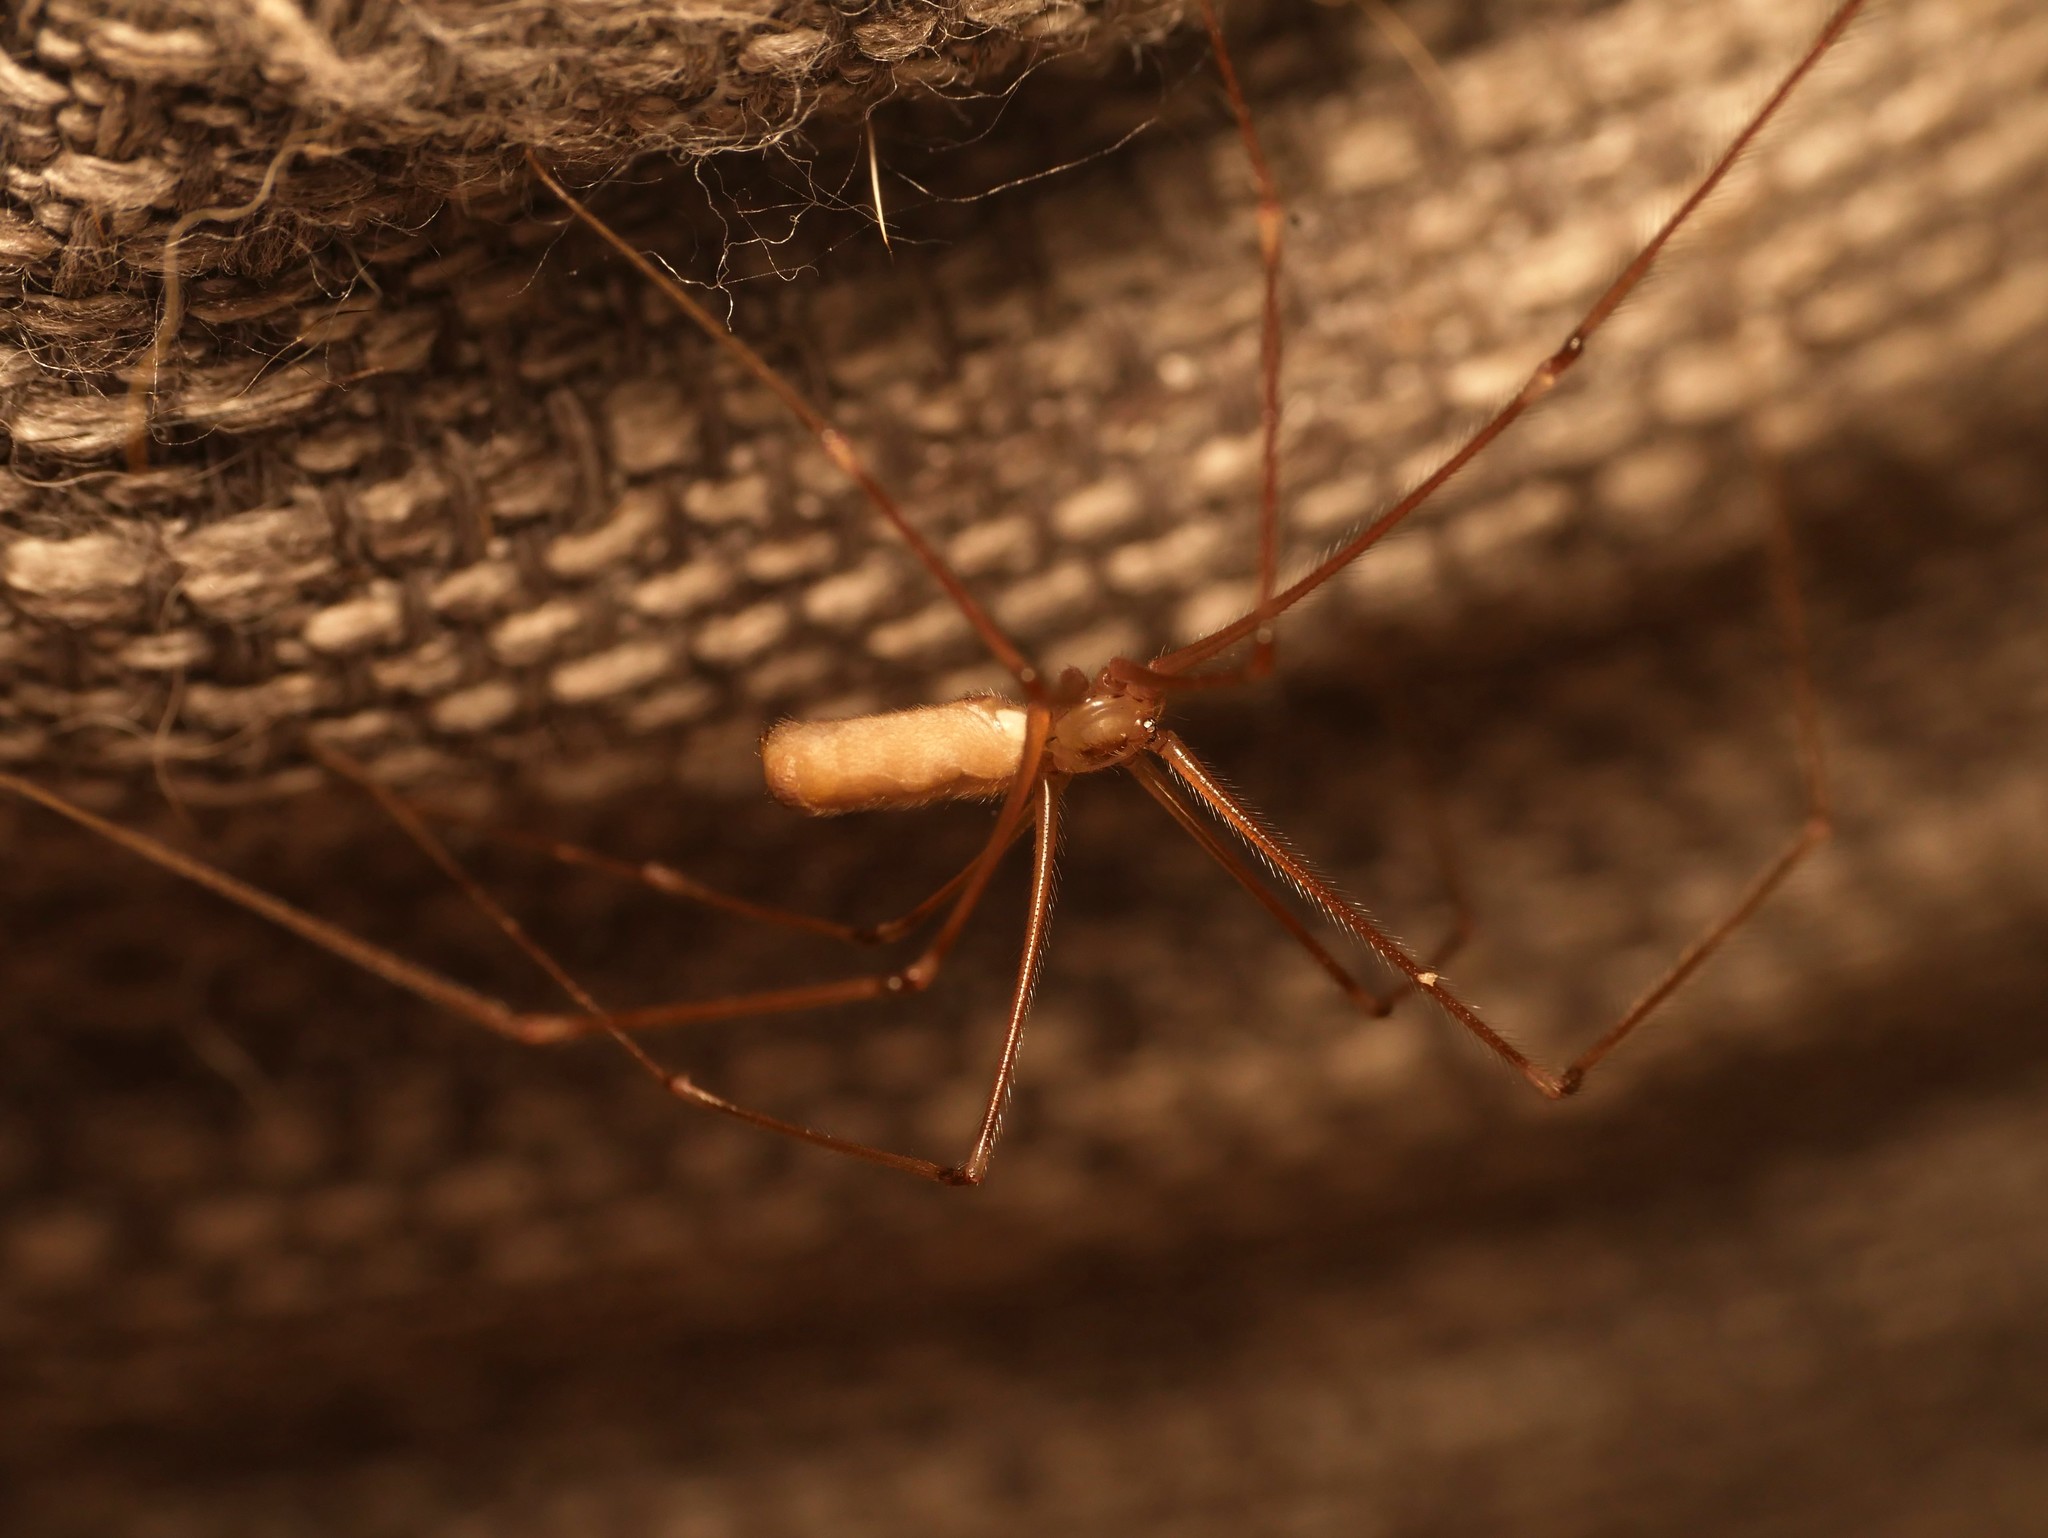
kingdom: Animalia
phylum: Arthropoda
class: Arachnida
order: Araneae
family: Pholcidae
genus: Pholcus
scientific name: Pholcus phalangioides
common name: Longbodied cellar spider
